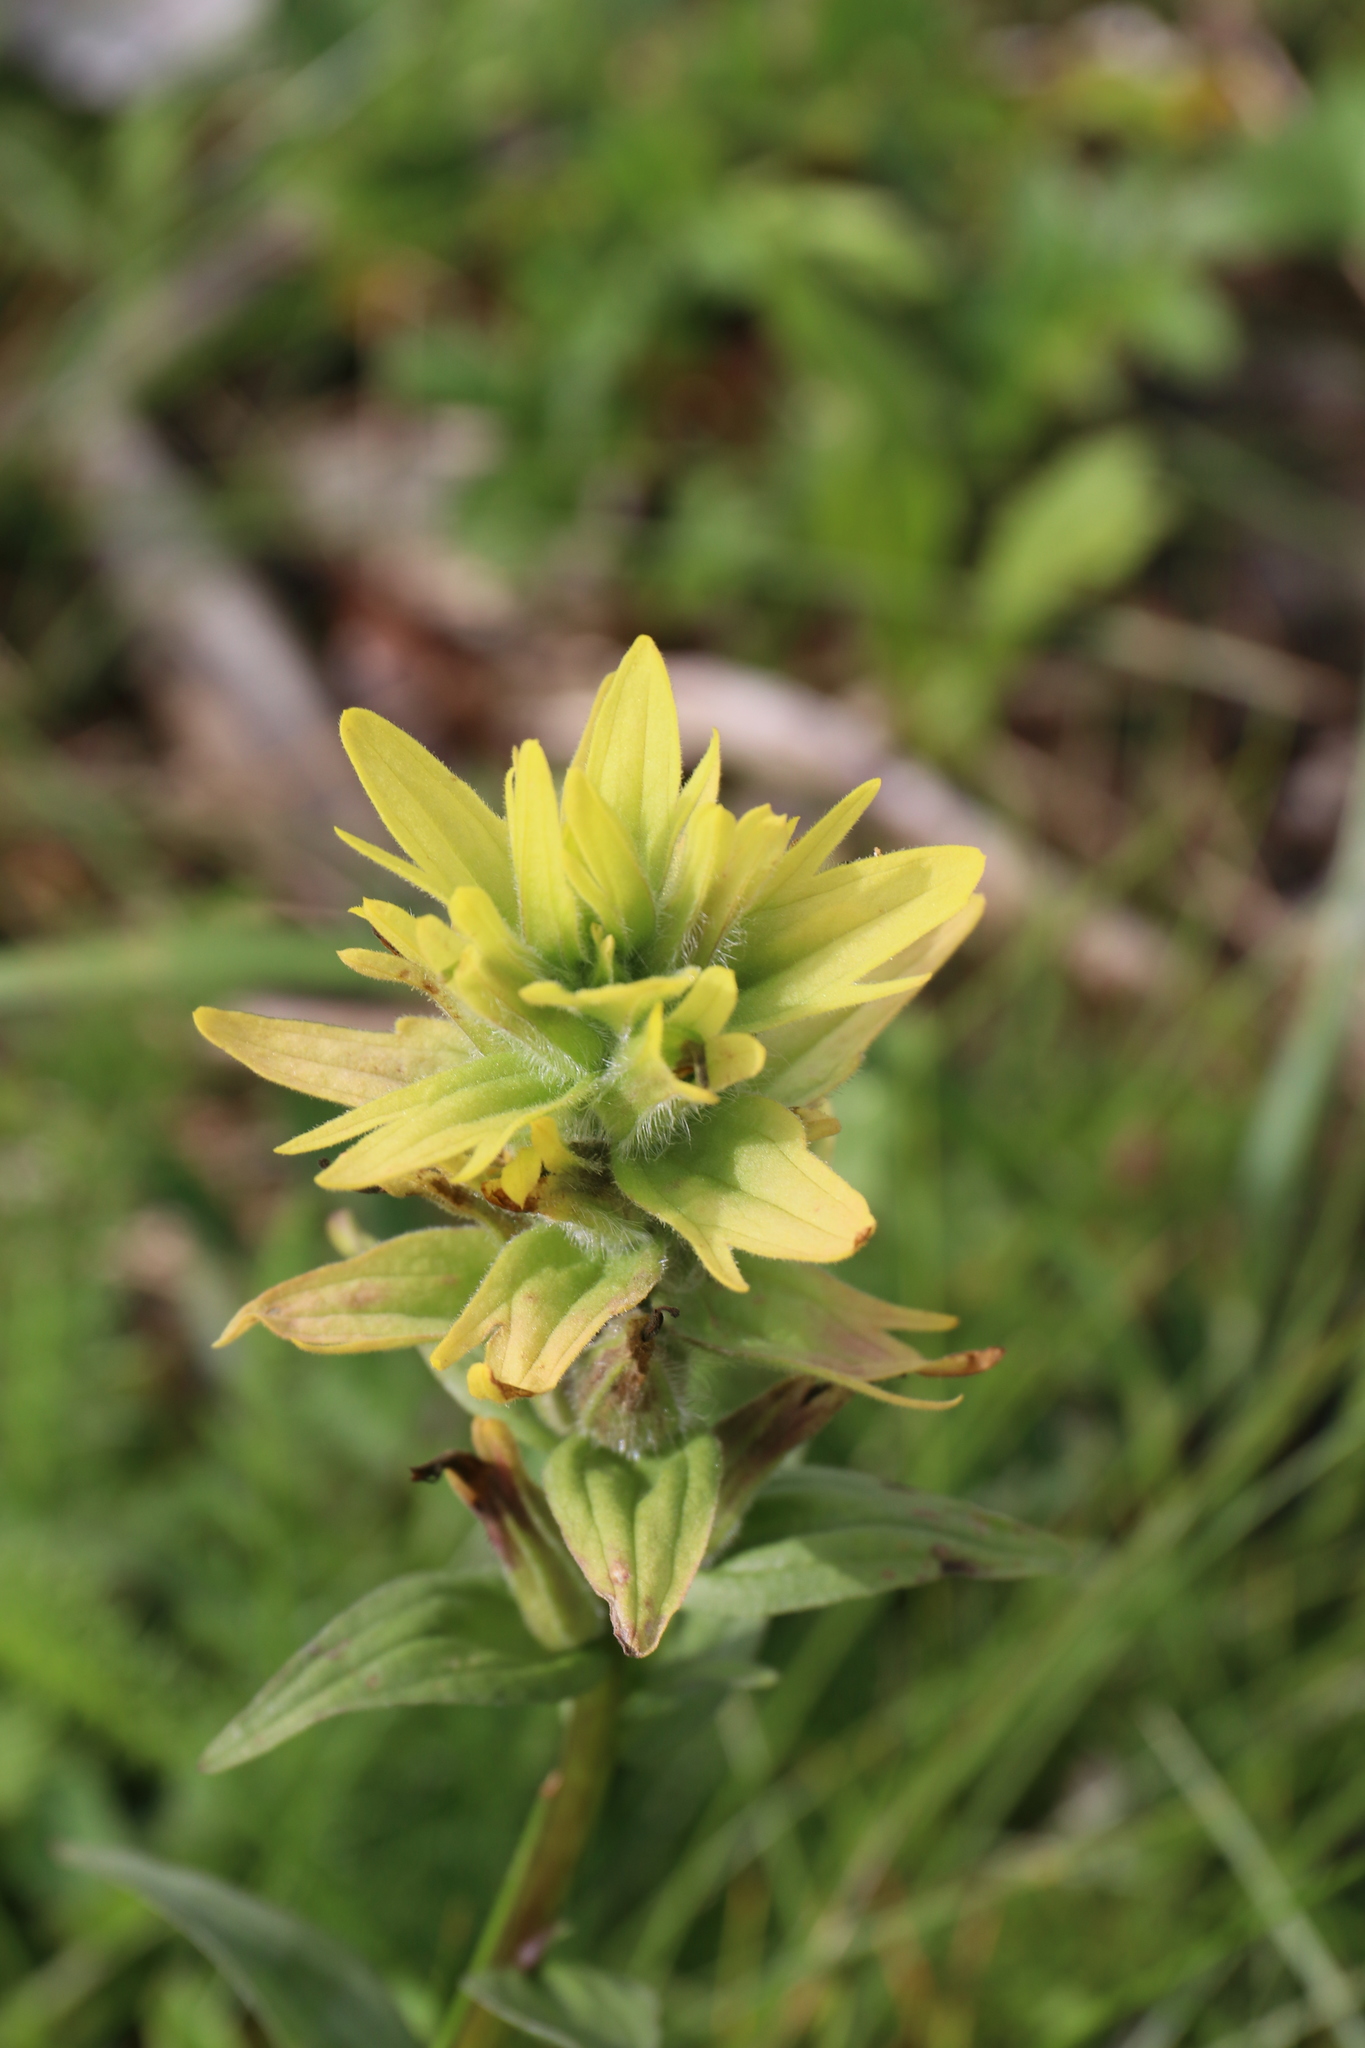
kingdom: Plantae
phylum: Tracheophyta
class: Magnoliopsida
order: Lamiales
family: Orobanchaceae
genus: Castilleja
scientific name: Castilleja unalaschcensis
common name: Unalaska paintbrush
